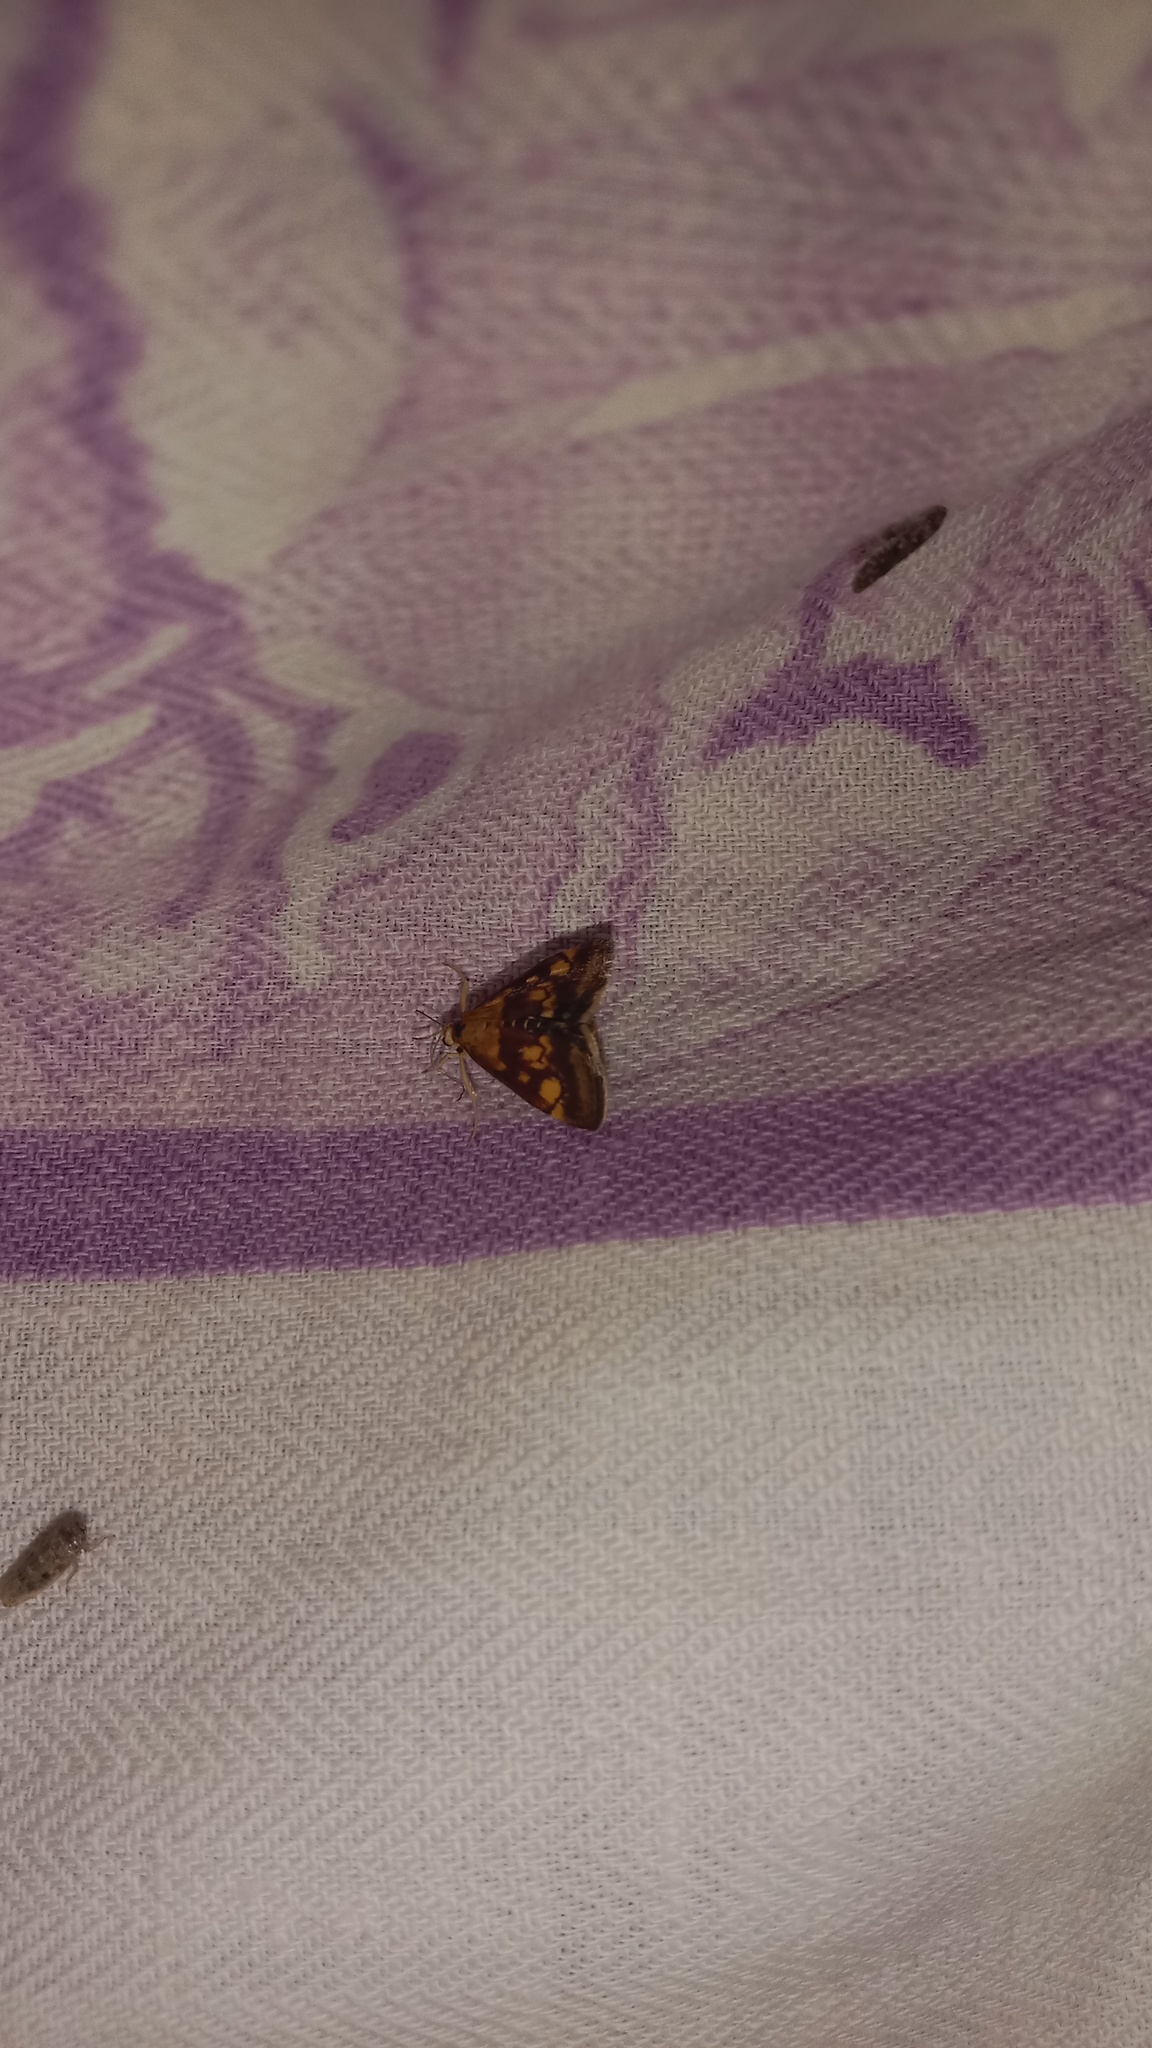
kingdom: Animalia
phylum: Arthropoda
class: Insecta
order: Lepidoptera
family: Crambidae
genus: Pyrausta
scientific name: Pyrausta aurata
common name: Small purple & gold
